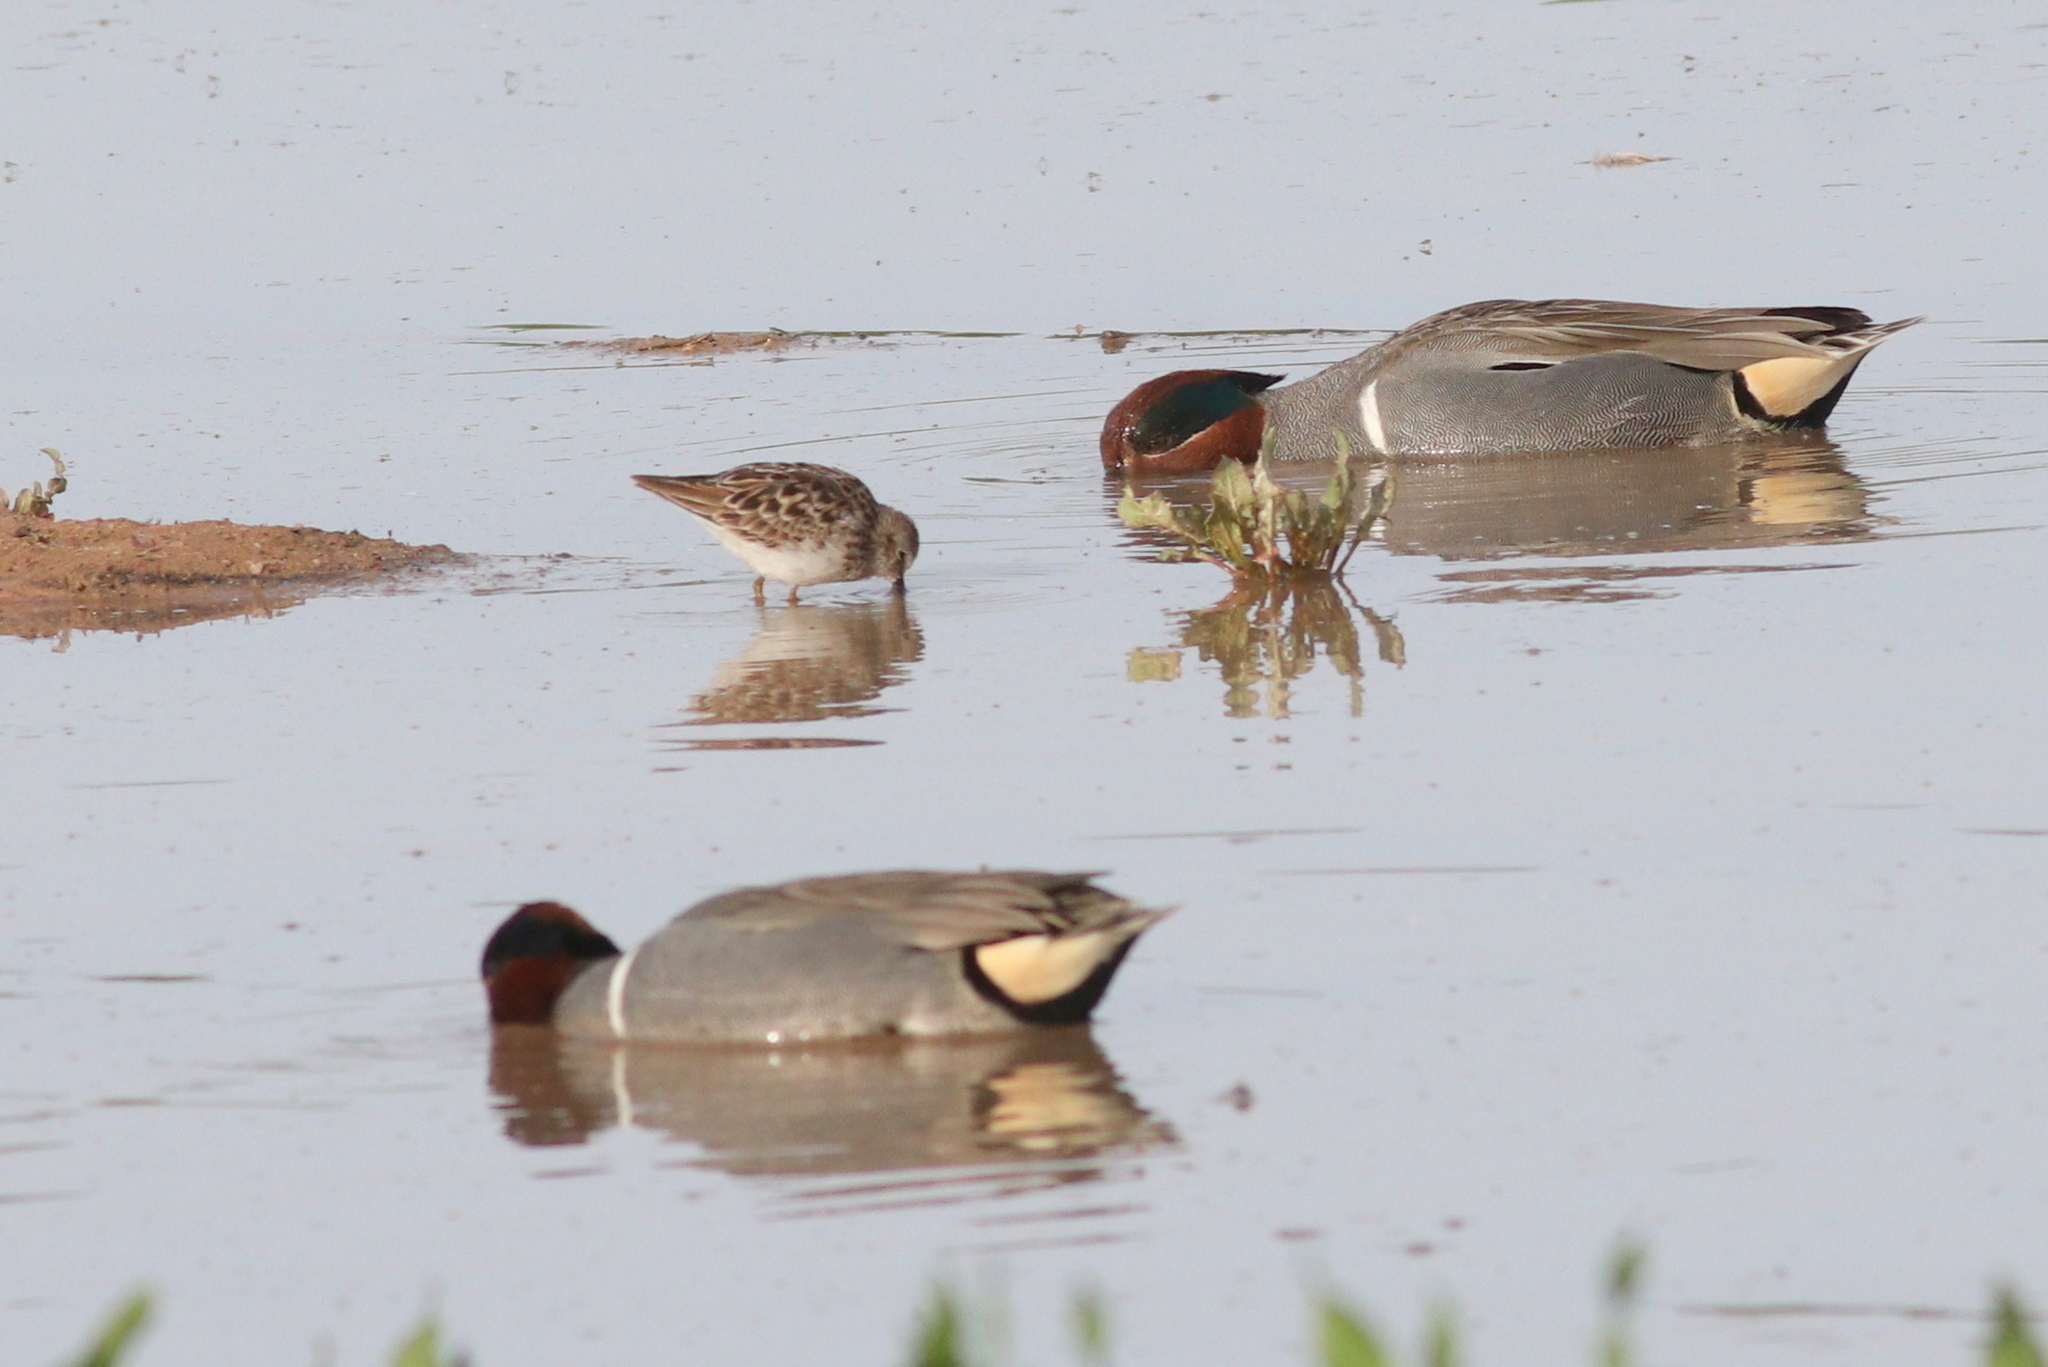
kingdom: Animalia
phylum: Chordata
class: Aves
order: Anseriformes
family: Anatidae
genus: Anas
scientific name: Anas crecca
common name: Eurasian teal
